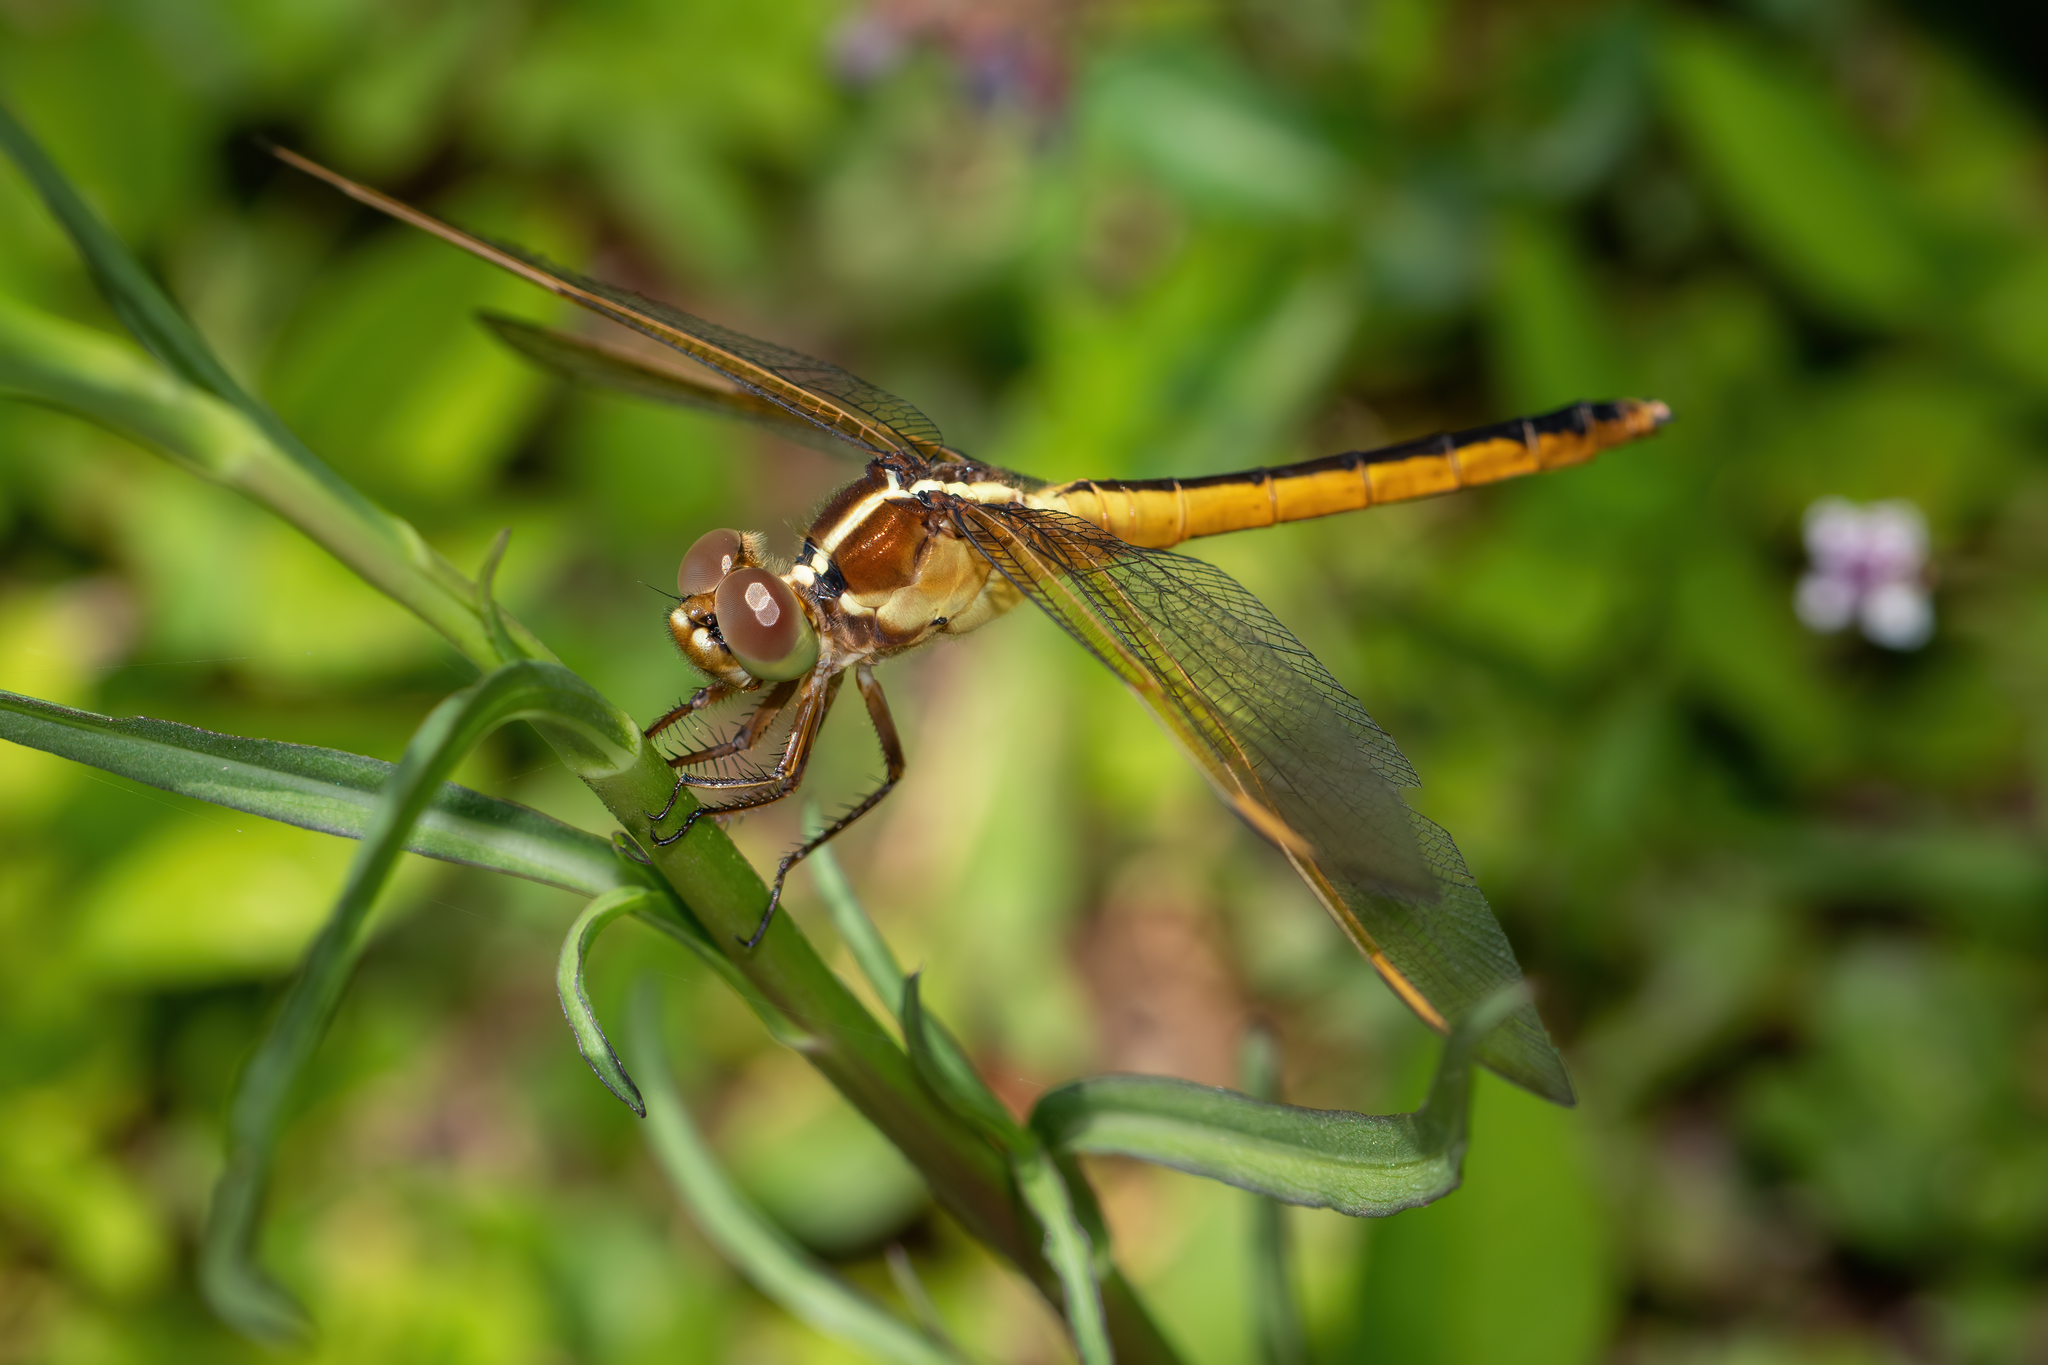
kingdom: Animalia
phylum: Arthropoda
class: Insecta
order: Odonata
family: Libellulidae
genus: Libellula
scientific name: Libellula needhami
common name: Needham's skimmer
